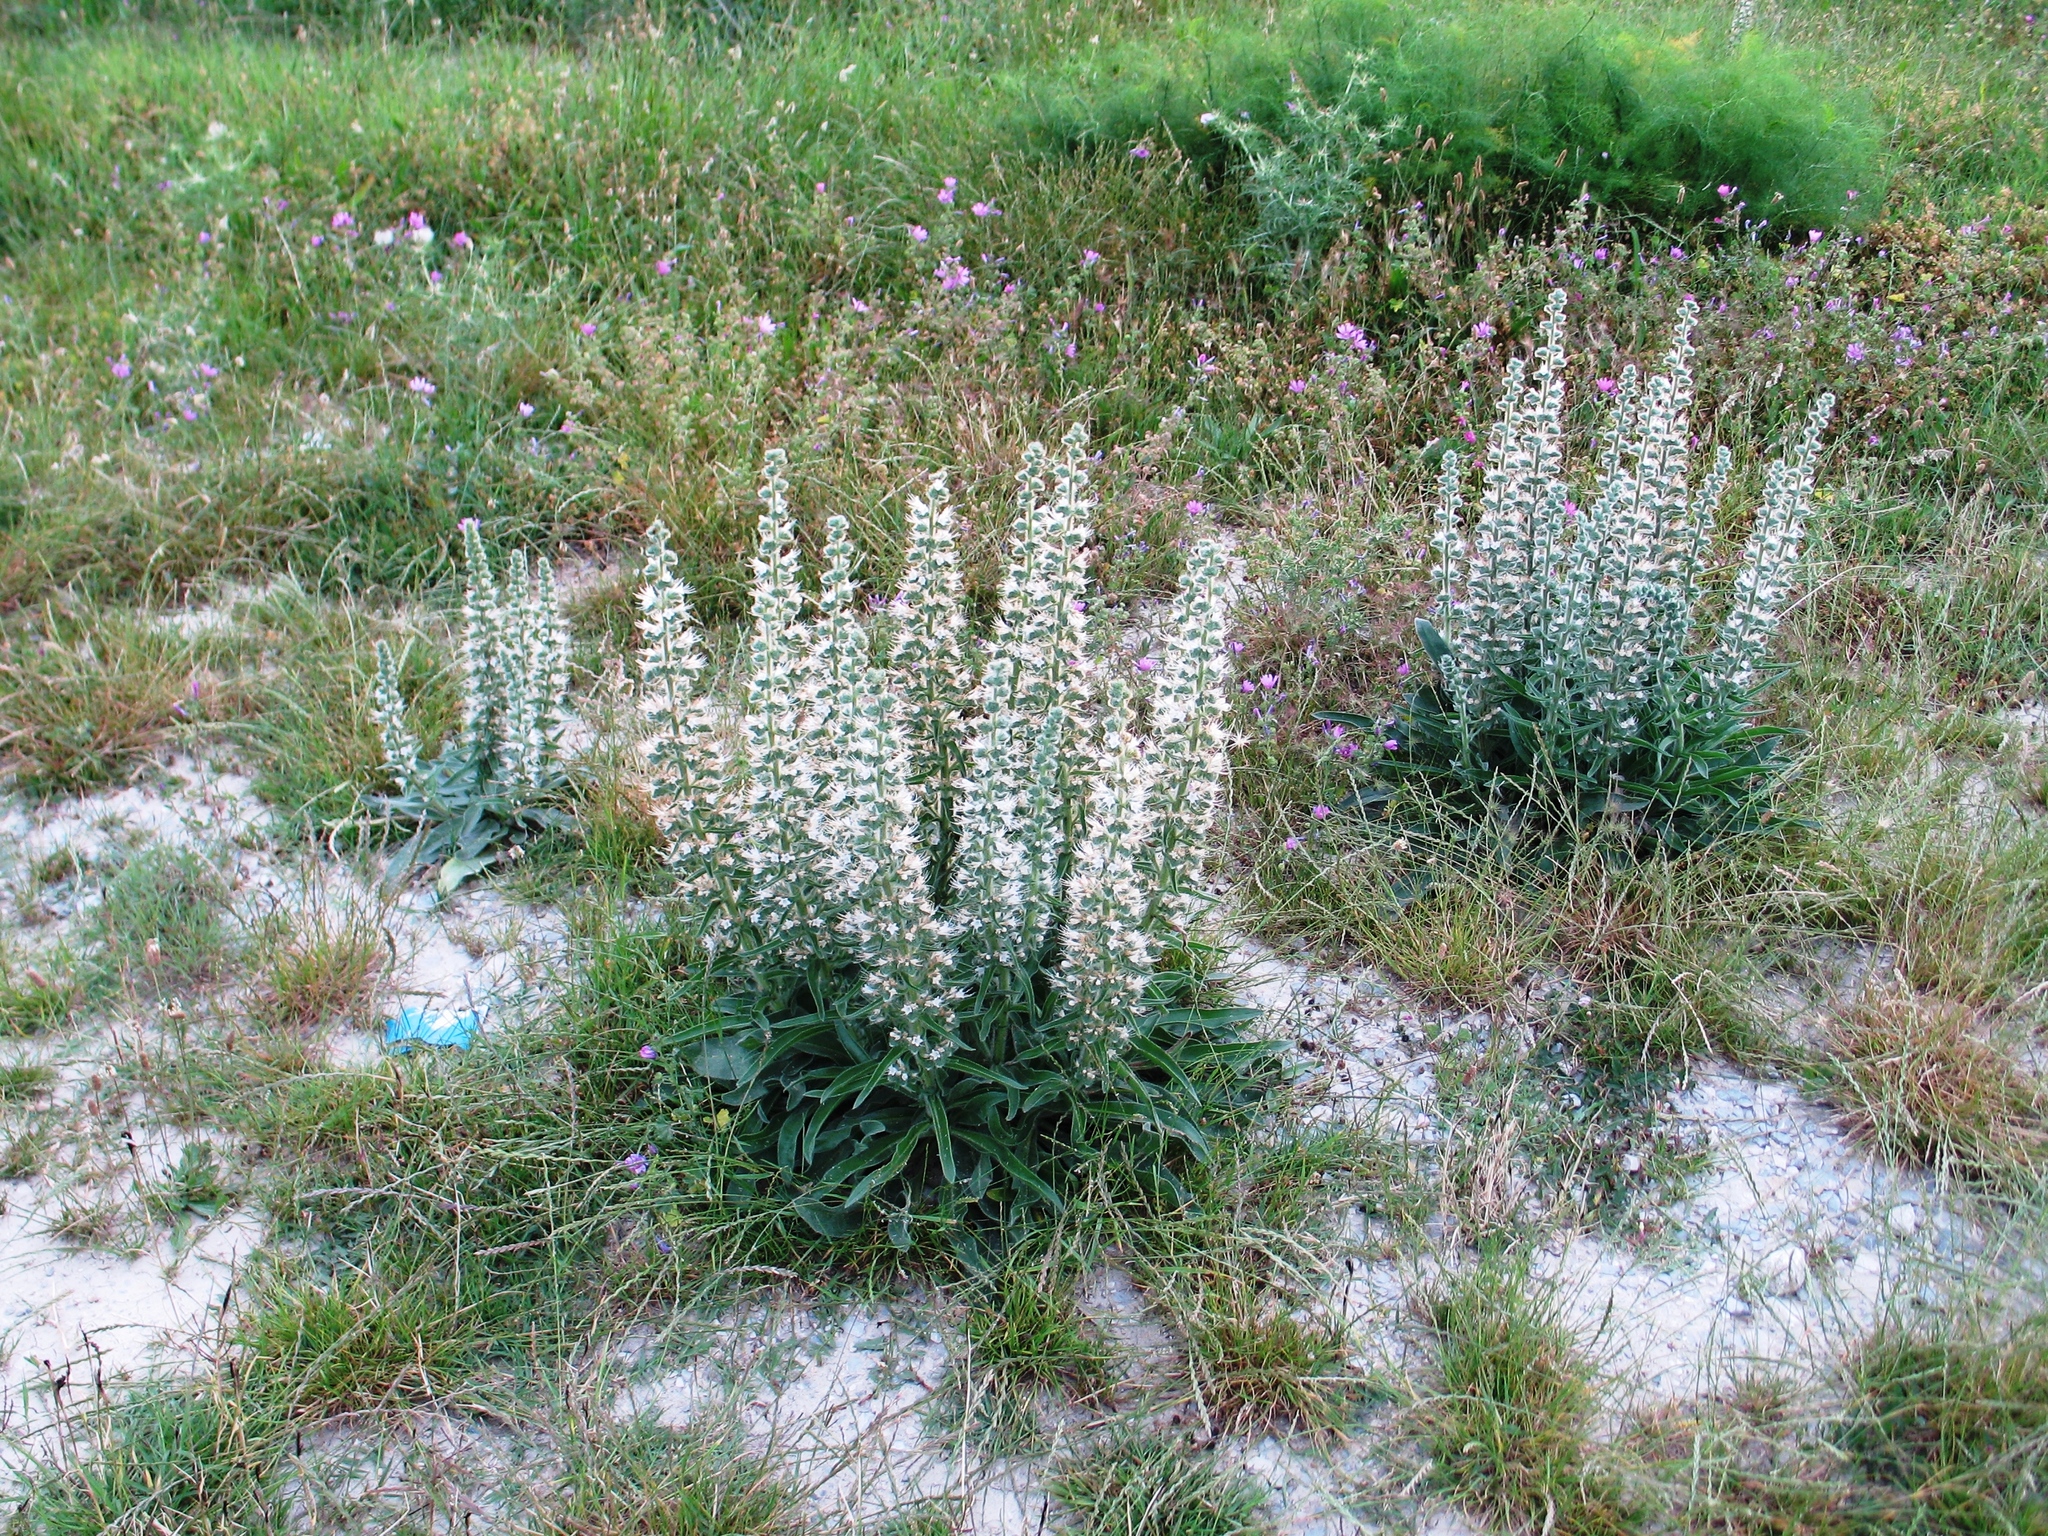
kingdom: Plantae
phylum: Tracheophyta
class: Magnoliopsida
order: Boraginales
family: Boraginaceae
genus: Echium
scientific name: Echium italicum
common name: Italian viper's bugloss
